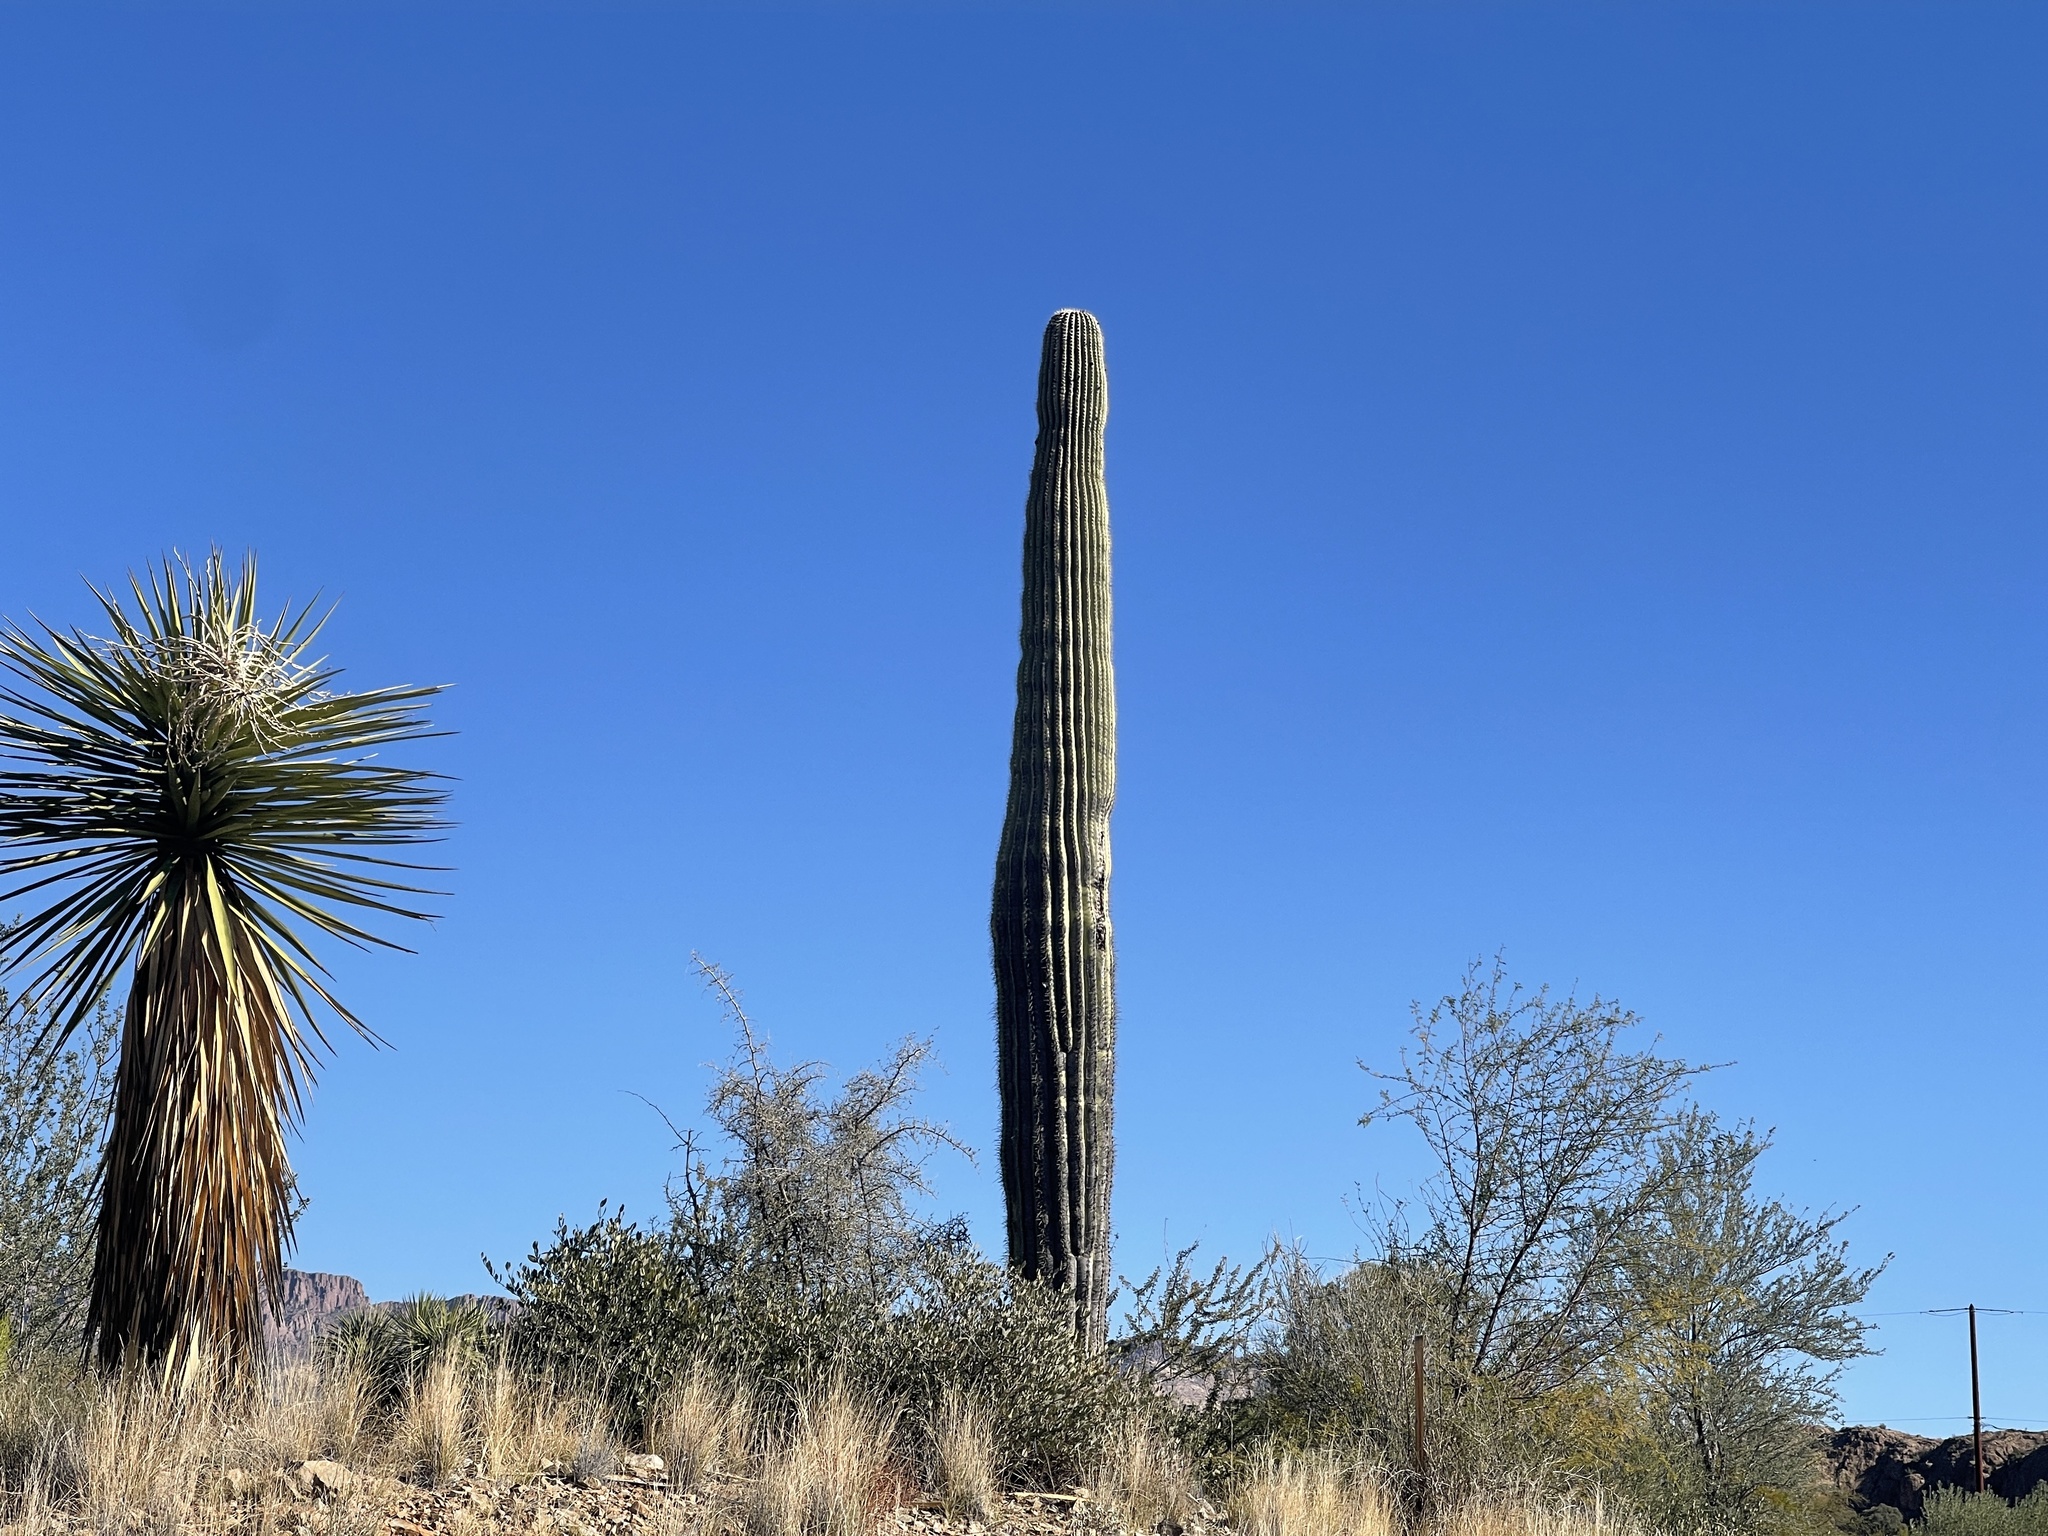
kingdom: Plantae
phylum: Tracheophyta
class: Magnoliopsida
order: Caryophyllales
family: Cactaceae
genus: Carnegiea
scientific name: Carnegiea gigantea
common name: Saguaro
